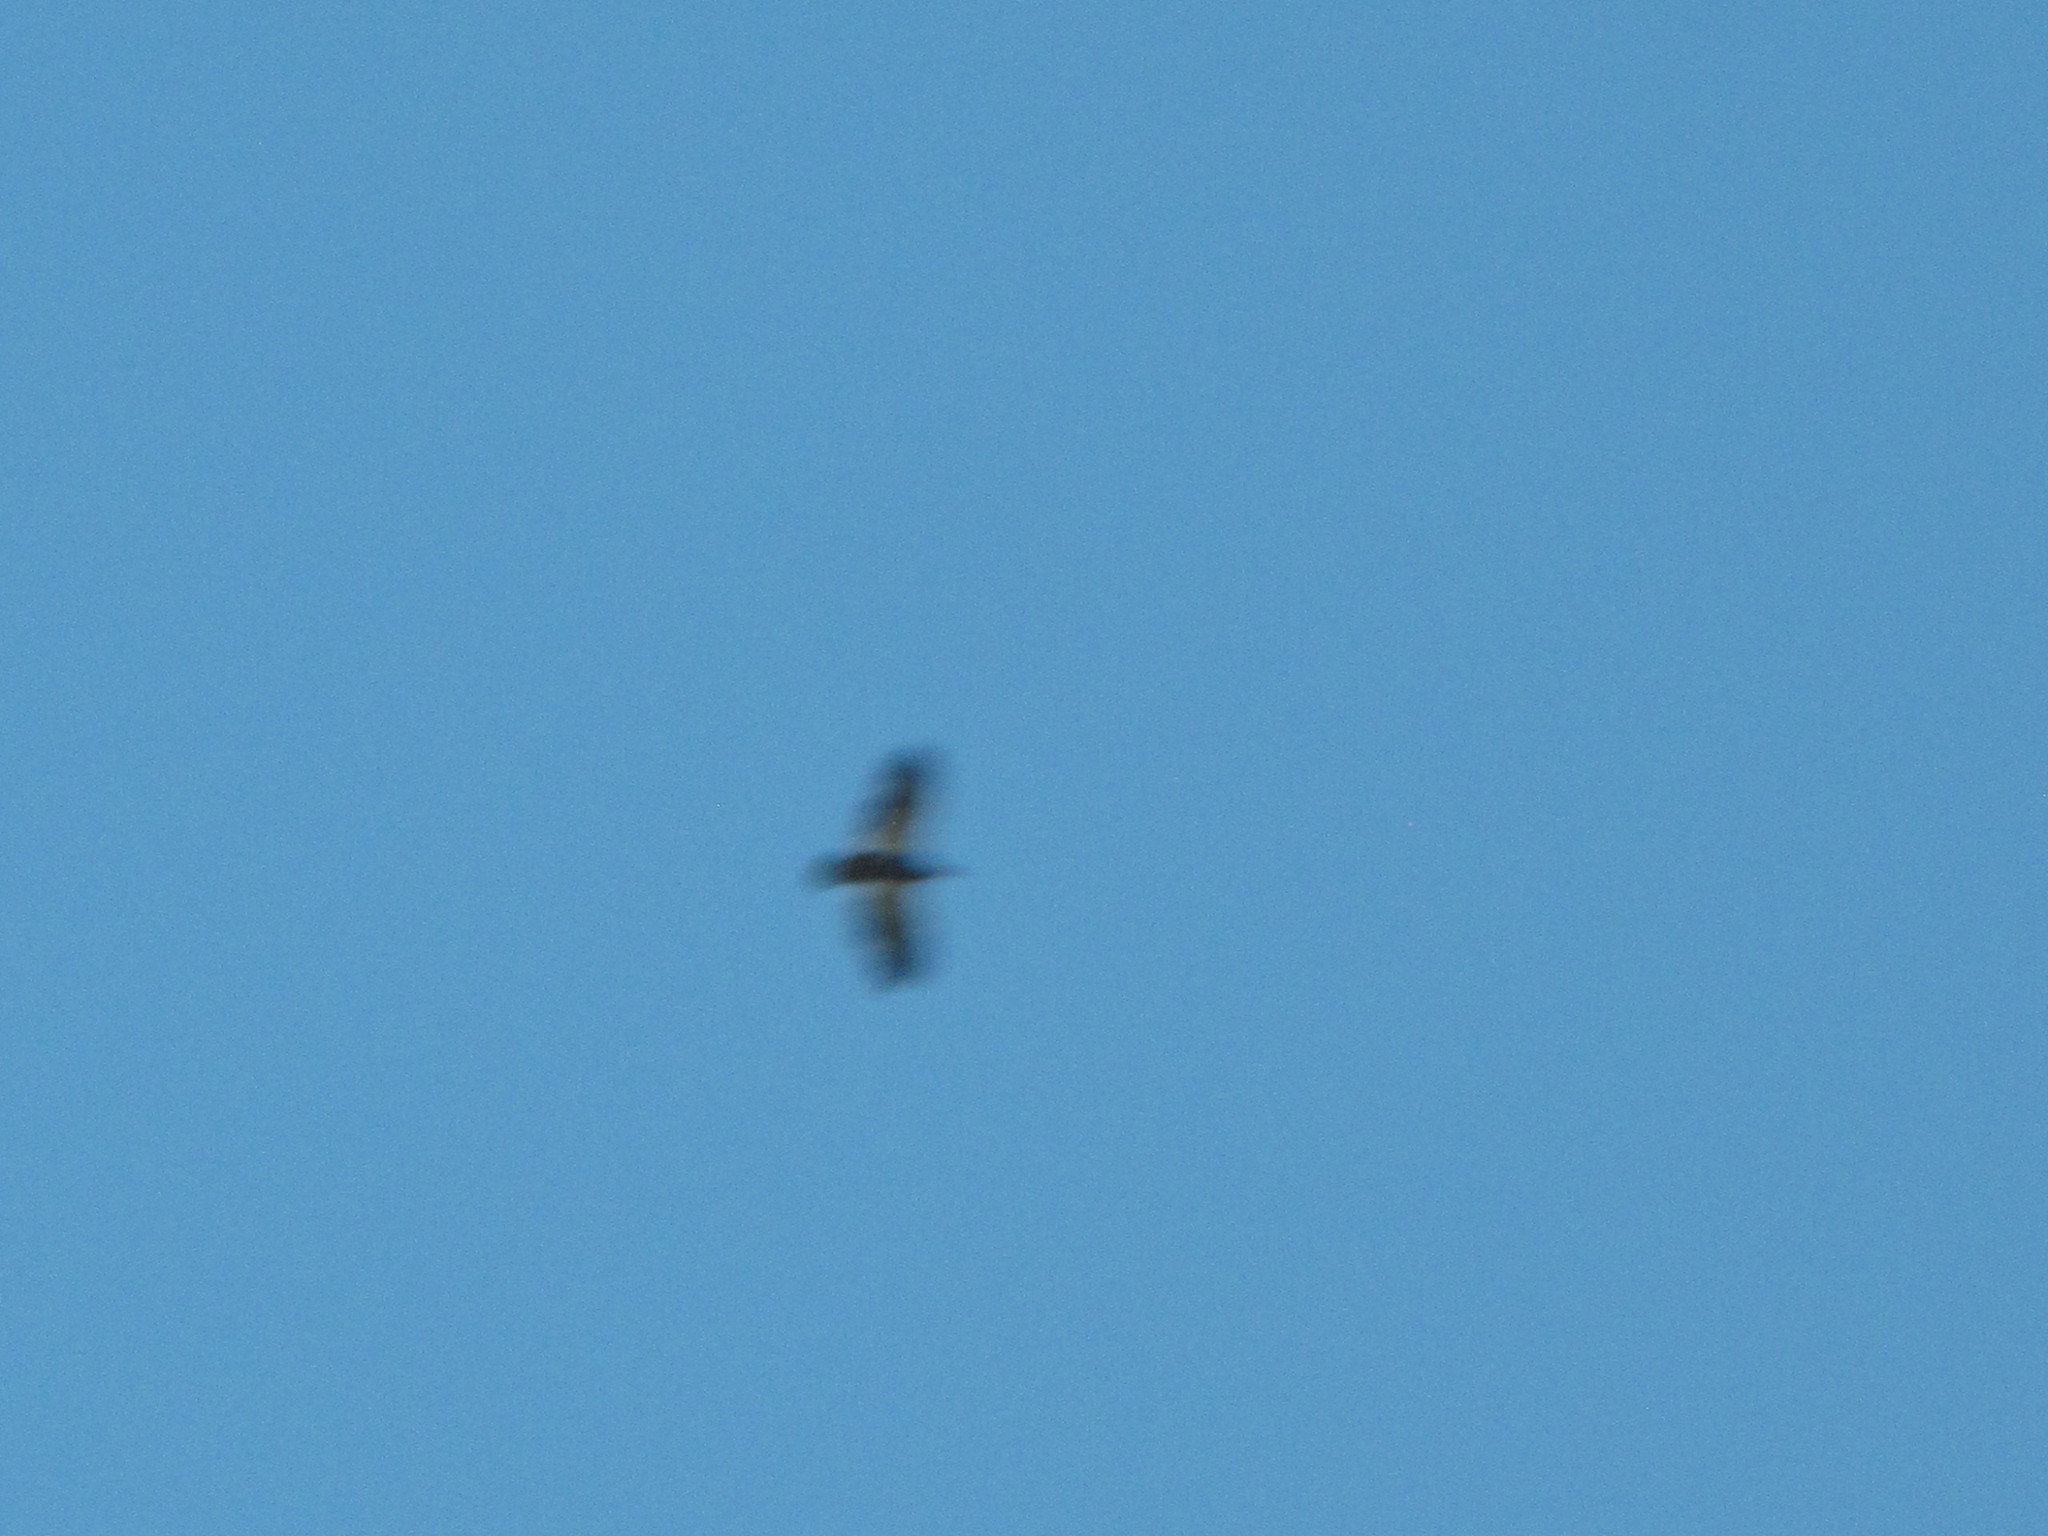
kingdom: Animalia
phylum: Chordata
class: Aves
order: Accipitriformes
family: Accipitridae
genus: Haliaeetus
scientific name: Haliaeetus leucocephalus
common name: Bald eagle
